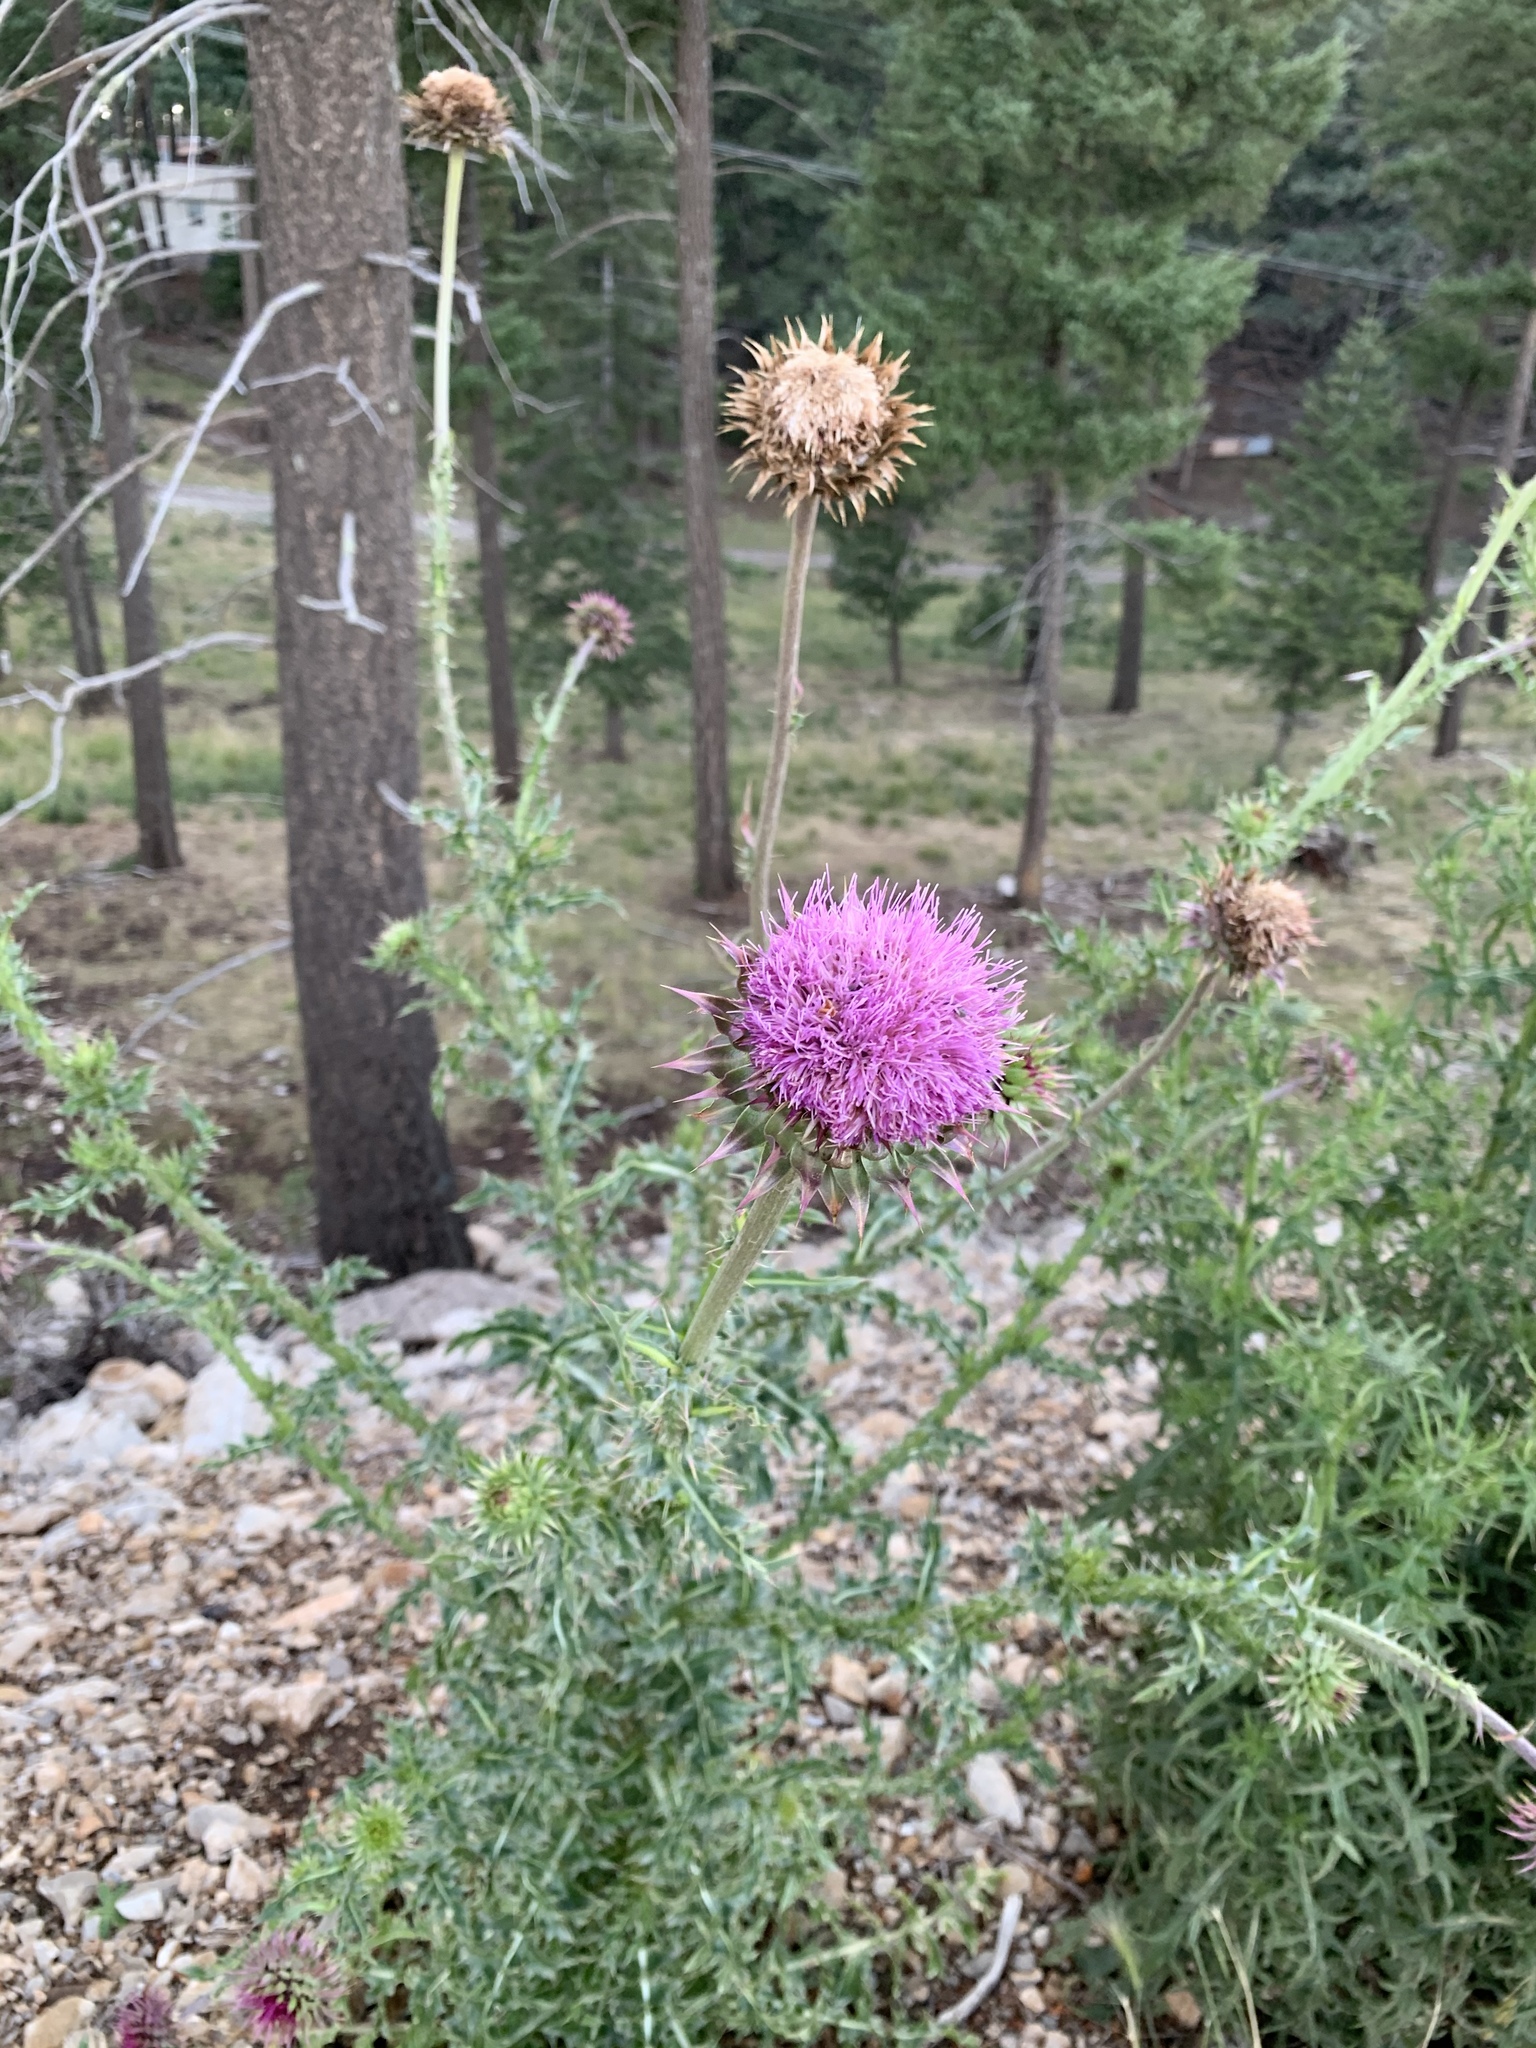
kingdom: Plantae
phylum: Tracheophyta
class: Magnoliopsida
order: Asterales
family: Asteraceae
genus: Carduus
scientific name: Carduus nutans
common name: Musk thistle
